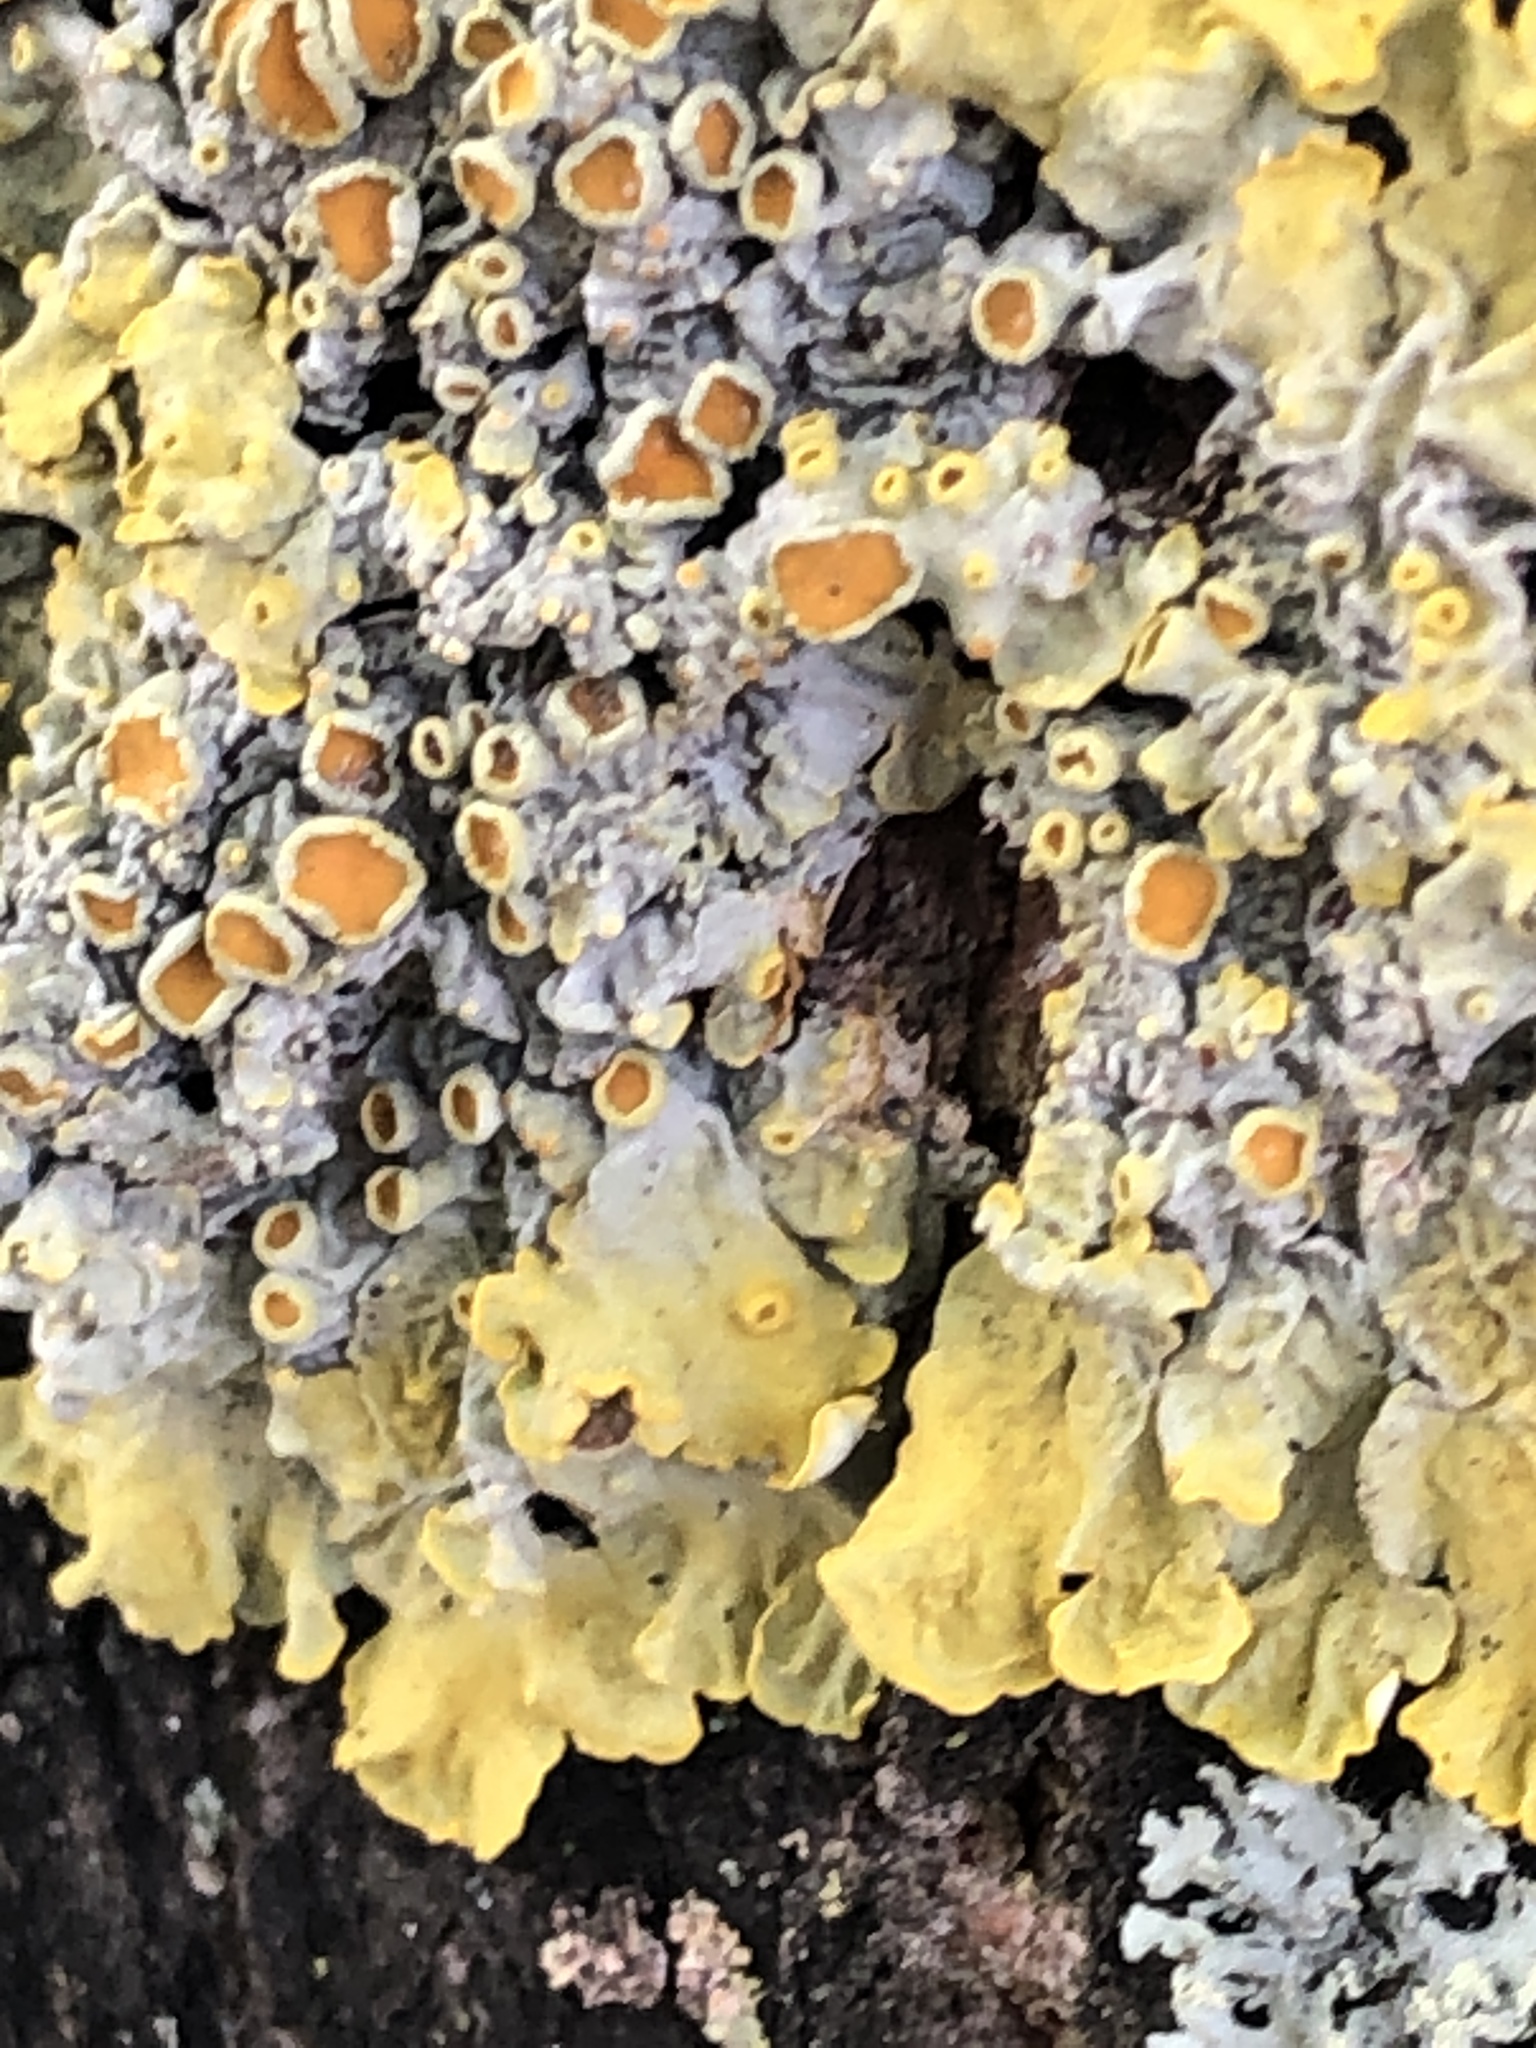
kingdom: Fungi
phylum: Ascomycota
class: Lecanoromycetes
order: Teloschistales
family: Teloschistaceae
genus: Xanthoria
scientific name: Xanthoria parietina
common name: Common orange lichen
